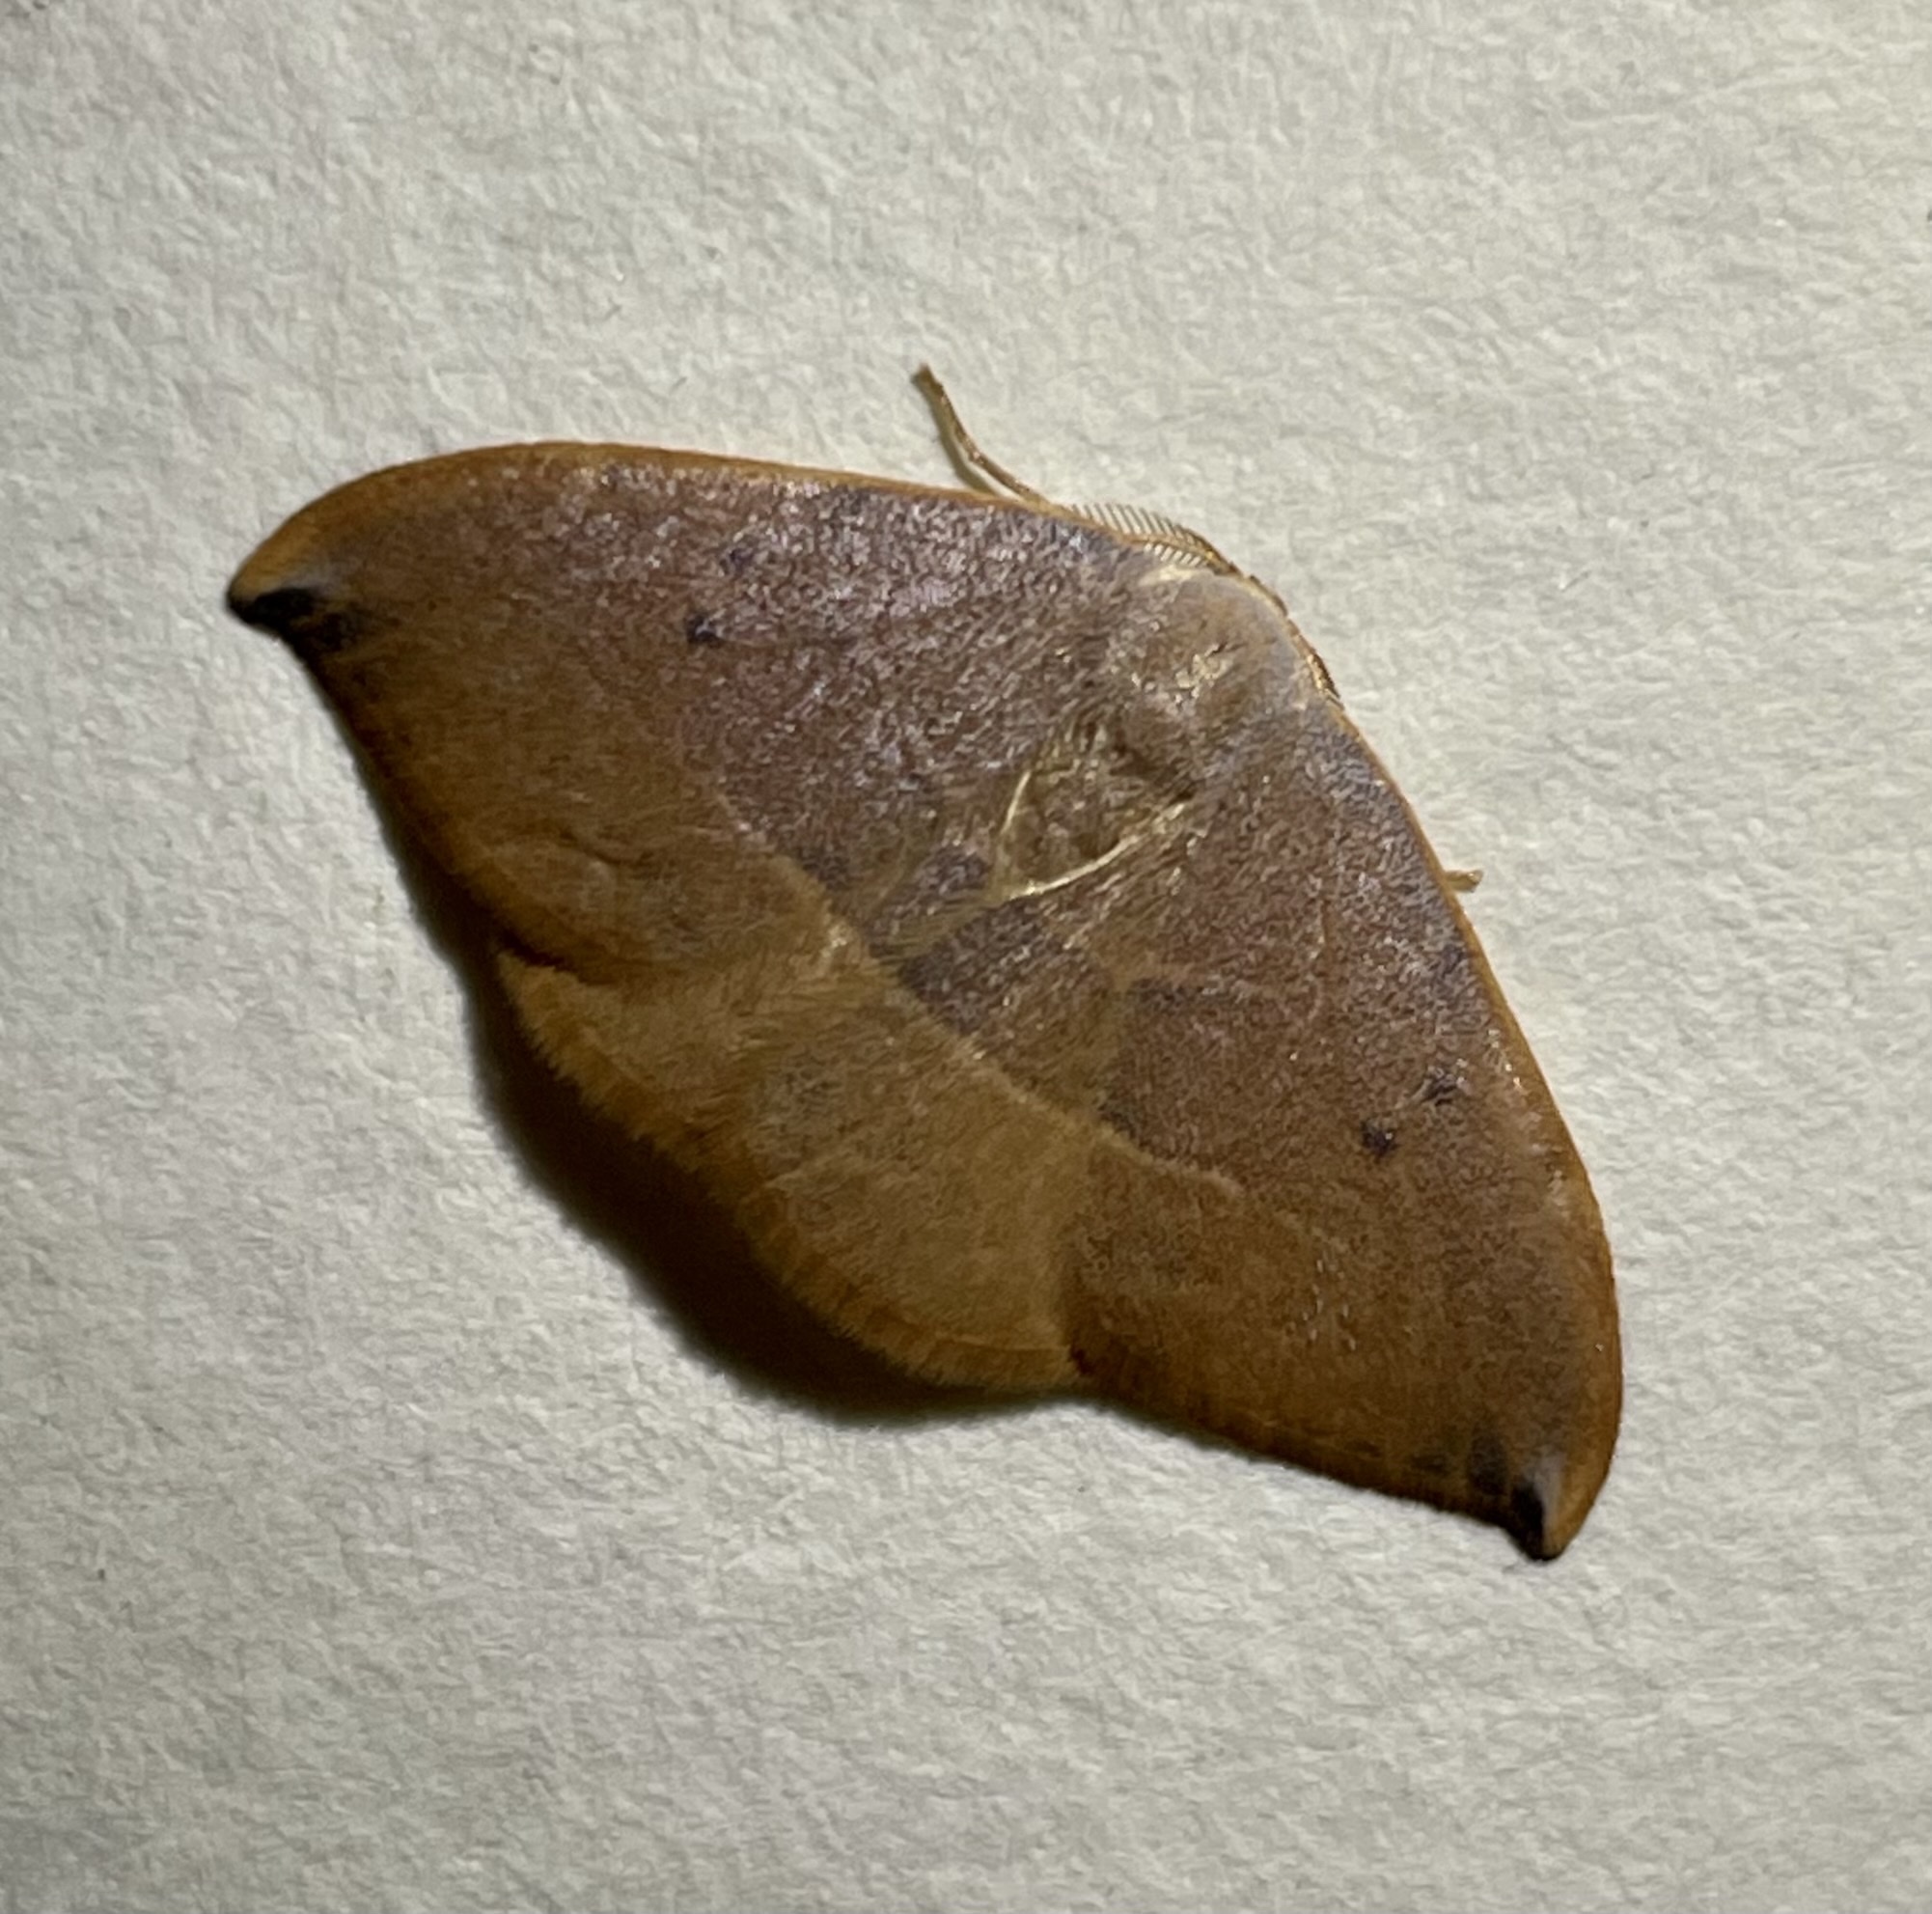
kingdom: Animalia
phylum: Arthropoda
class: Insecta
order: Lepidoptera
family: Drepanidae
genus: Watsonalla
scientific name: Watsonalla uncinula
